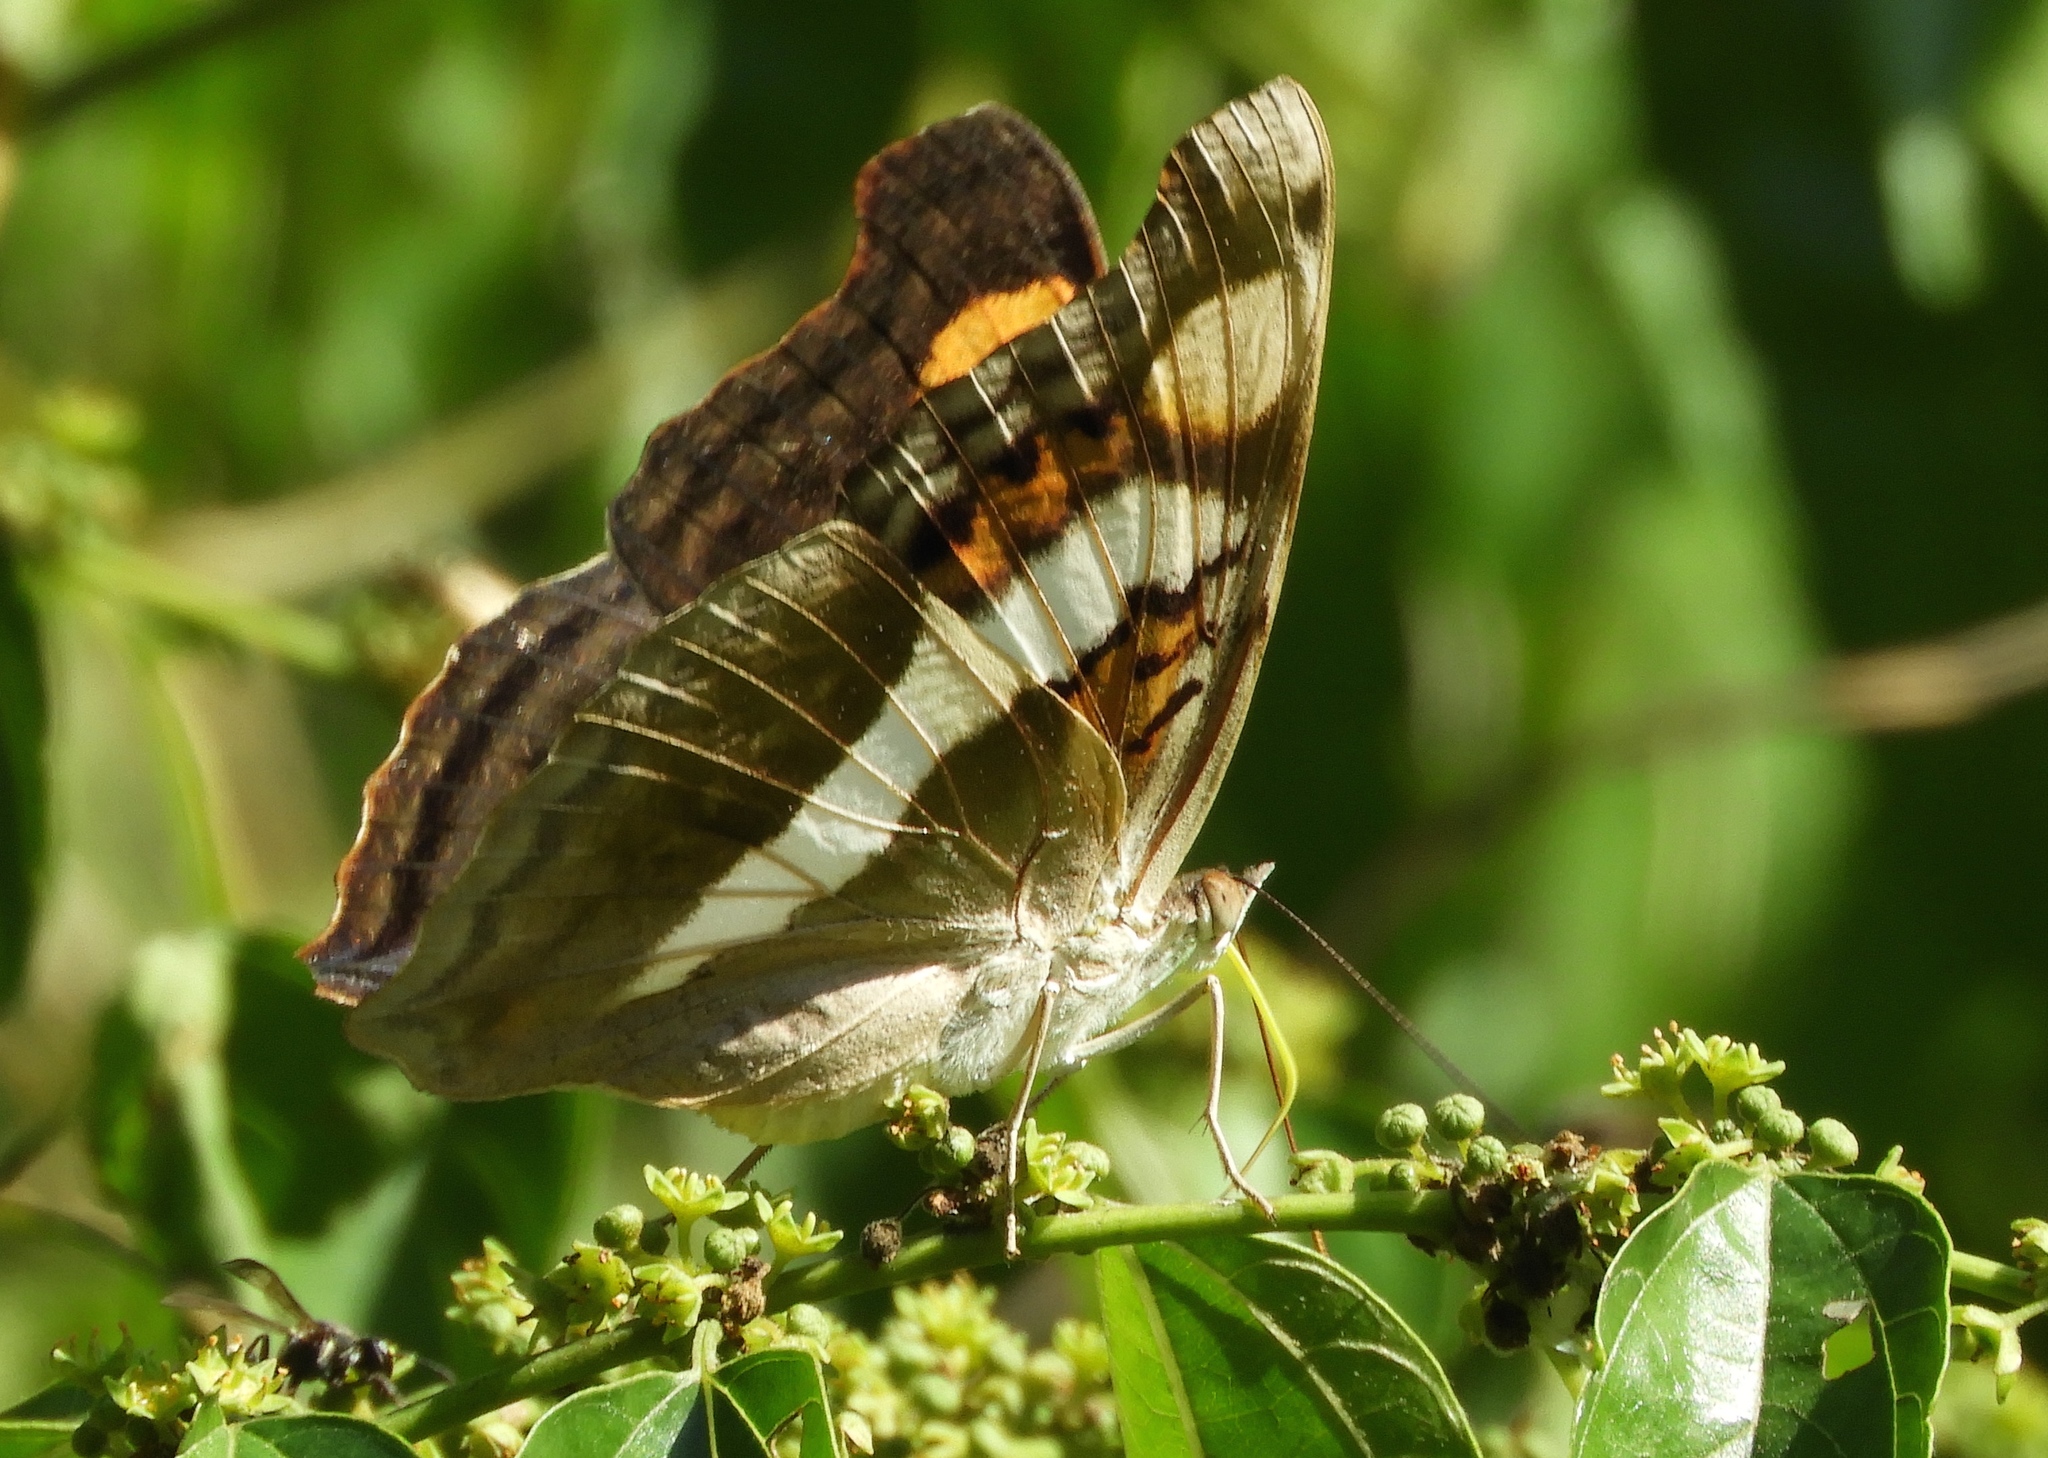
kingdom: Animalia
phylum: Arthropoda
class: Insecta
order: Lepidoptera
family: Nymphalidae
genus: Doxocopa
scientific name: Doxocopa laure
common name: Silver emperor
